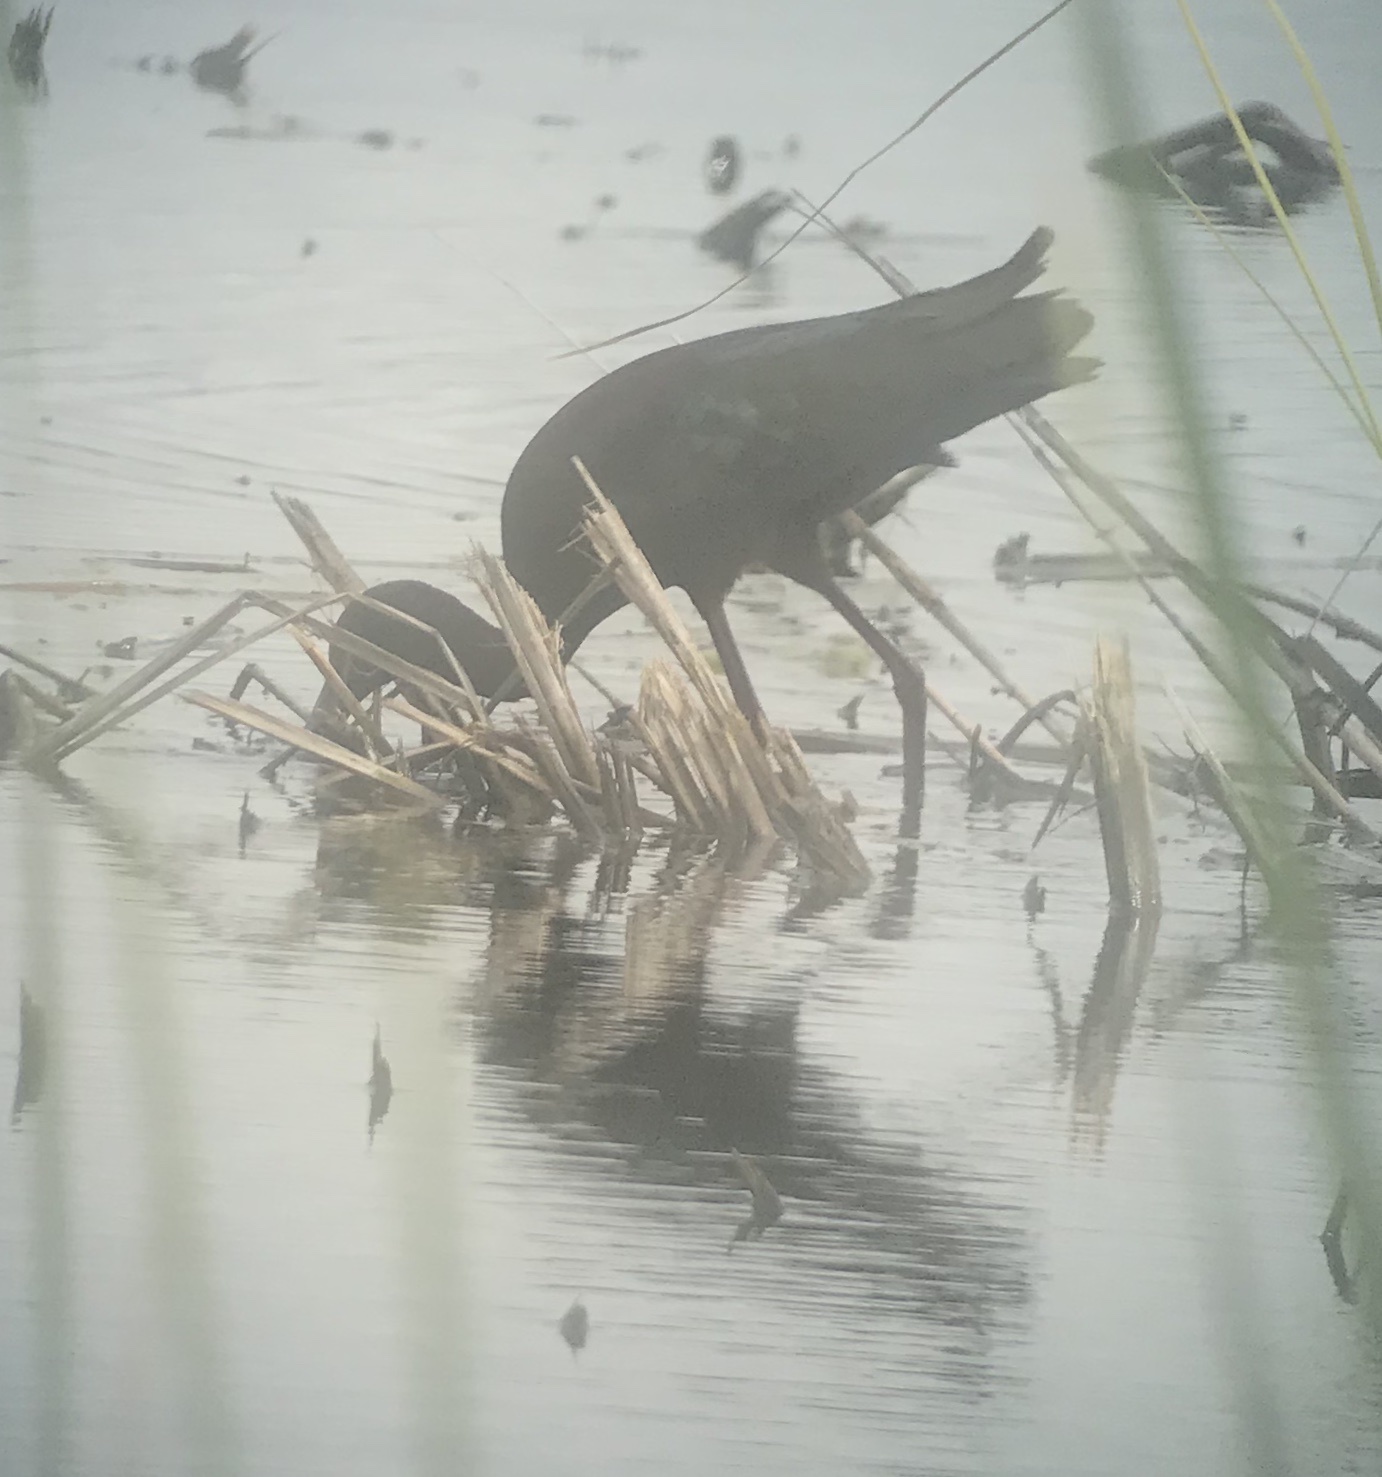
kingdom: Animalia
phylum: Chordata
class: Aves
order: Pelecaniformes
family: Threskiornithidae
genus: Plegadis
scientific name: Plegadis chihi
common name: White-faced ibis
